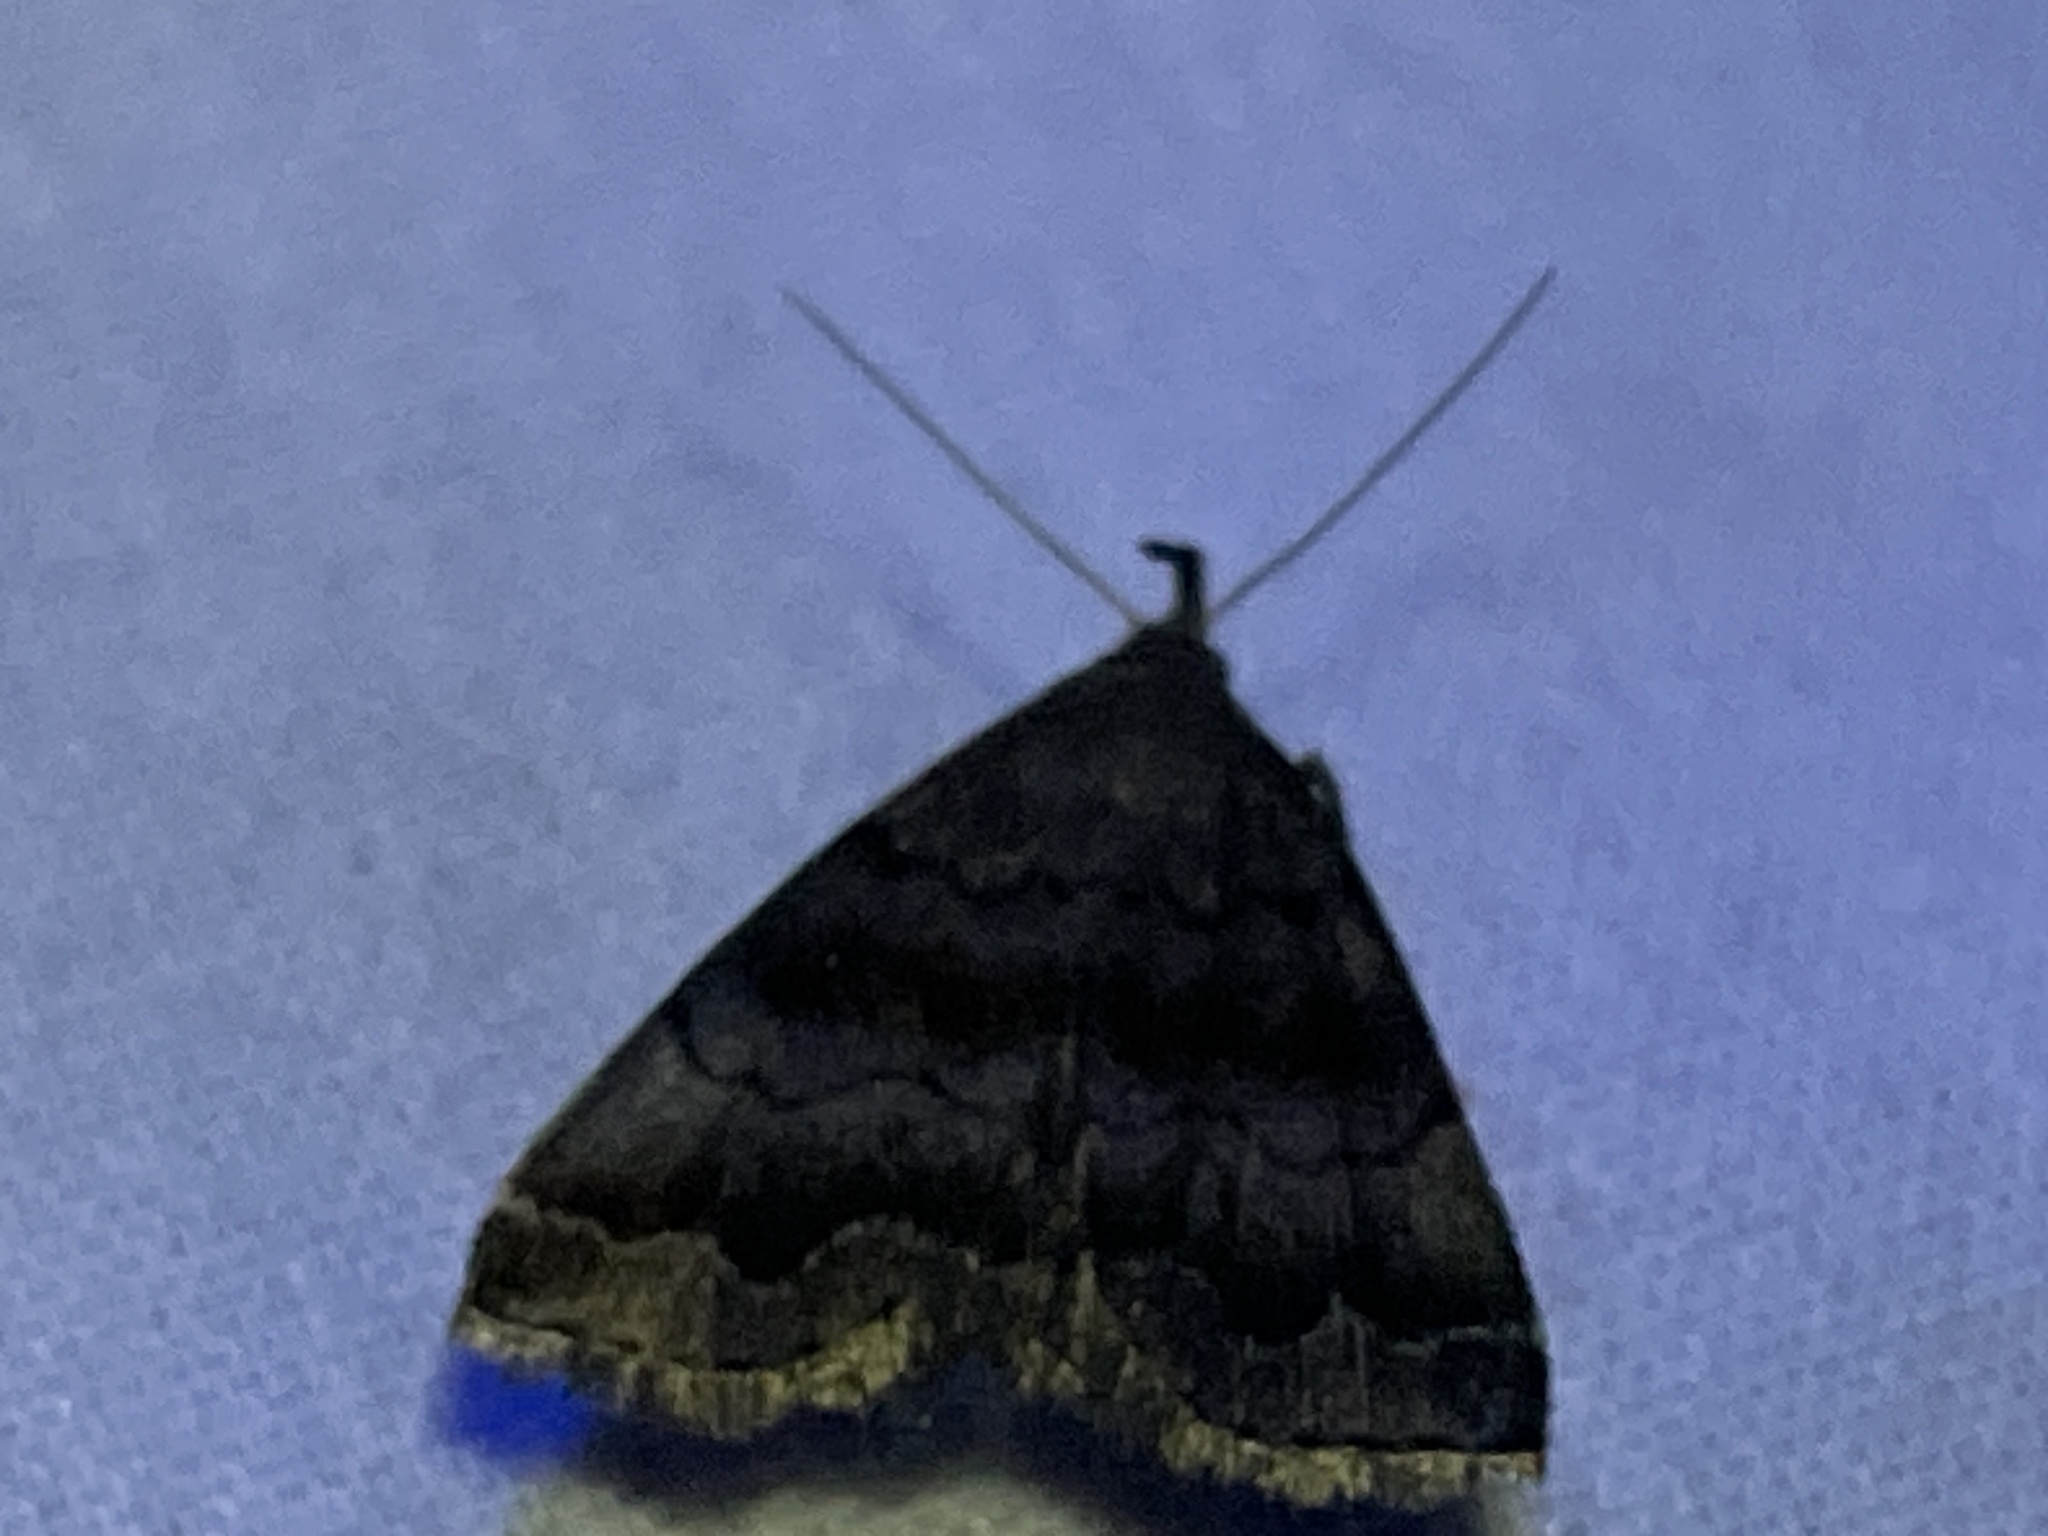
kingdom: Animalia
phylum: Arthropoda
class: Insecta
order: Lepidoptera
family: Erebidae
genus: Phalaenostola
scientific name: Phalaenostola larentioides
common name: Black-banded owlet
